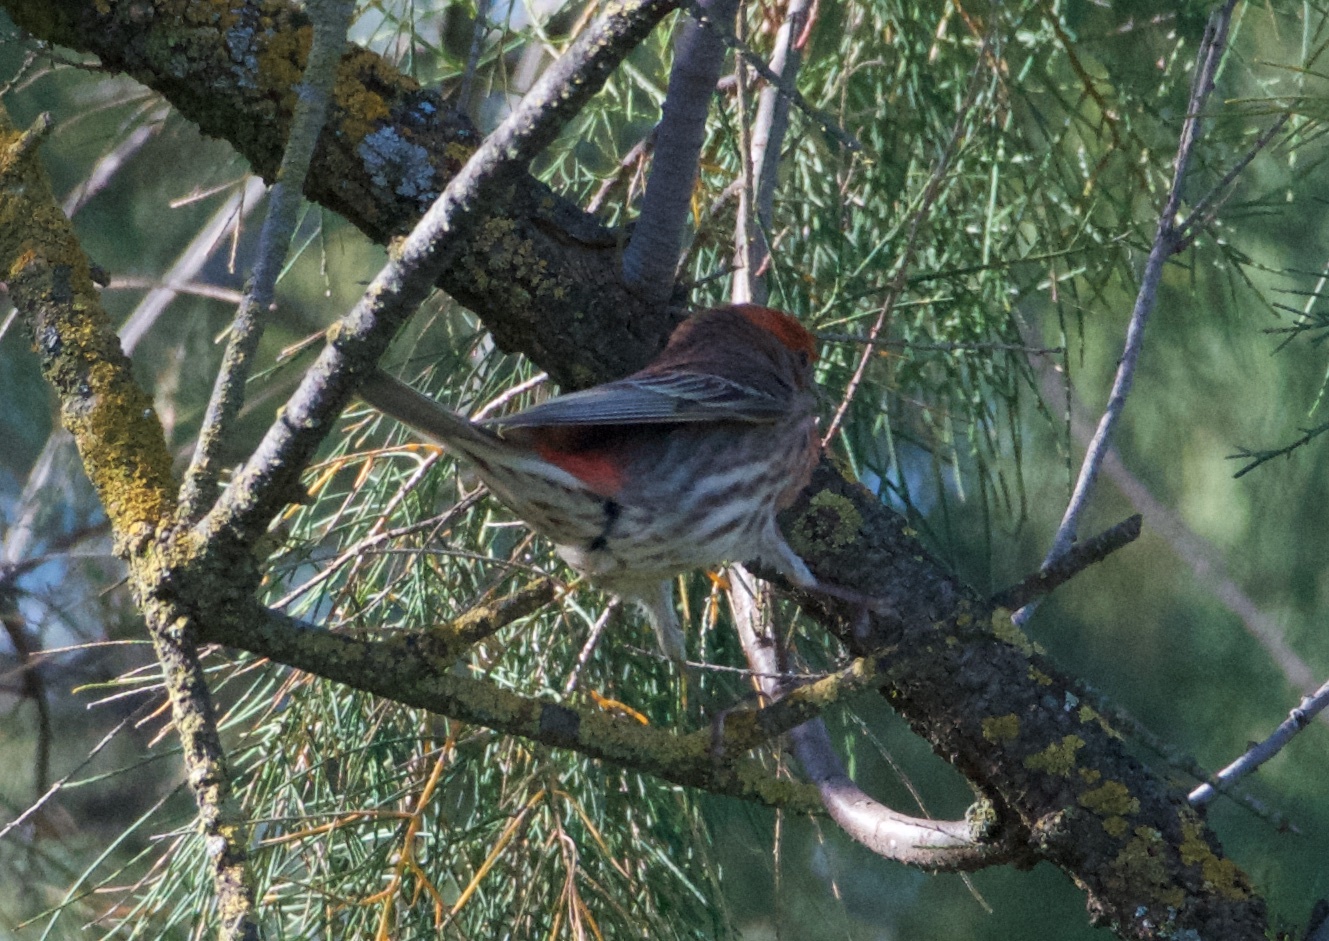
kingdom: Animalia
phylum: Chordata
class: Aves
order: Passeriformes
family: Fringillidae
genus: Haemorhous
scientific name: Haemorhous mexicanus
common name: House finch
